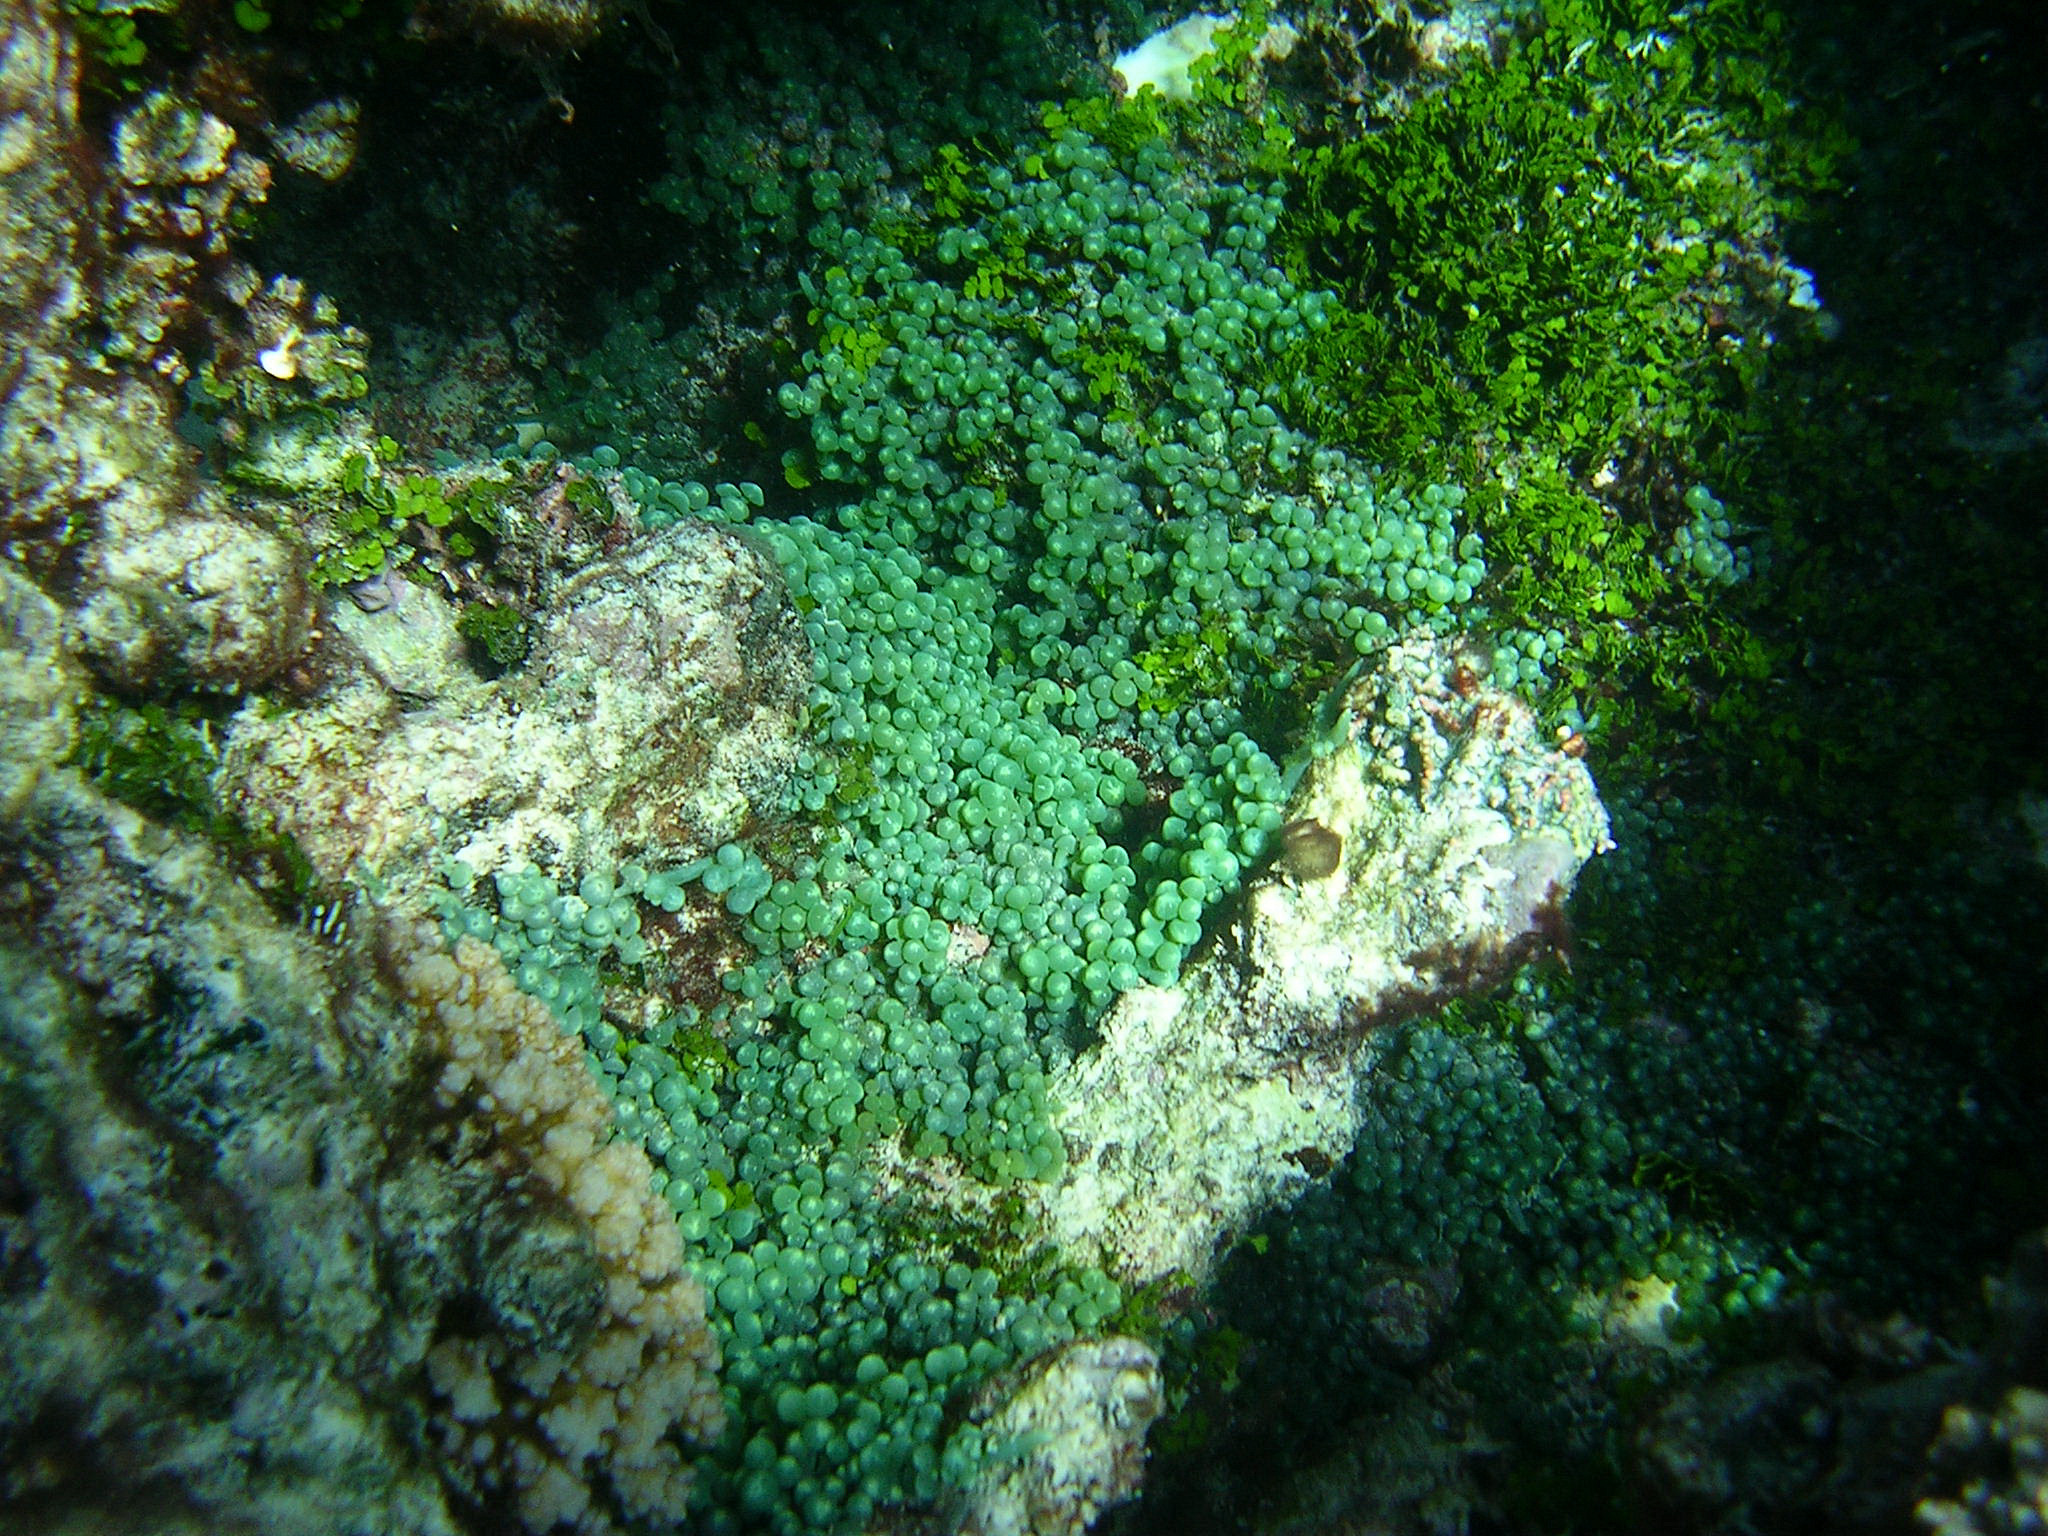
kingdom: Plantae
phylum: Chlorophyta
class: Ulvophyceae
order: Bryopsidales
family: Caulerpaceae
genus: Caulerpa
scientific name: Caulerpa chemnitzia
